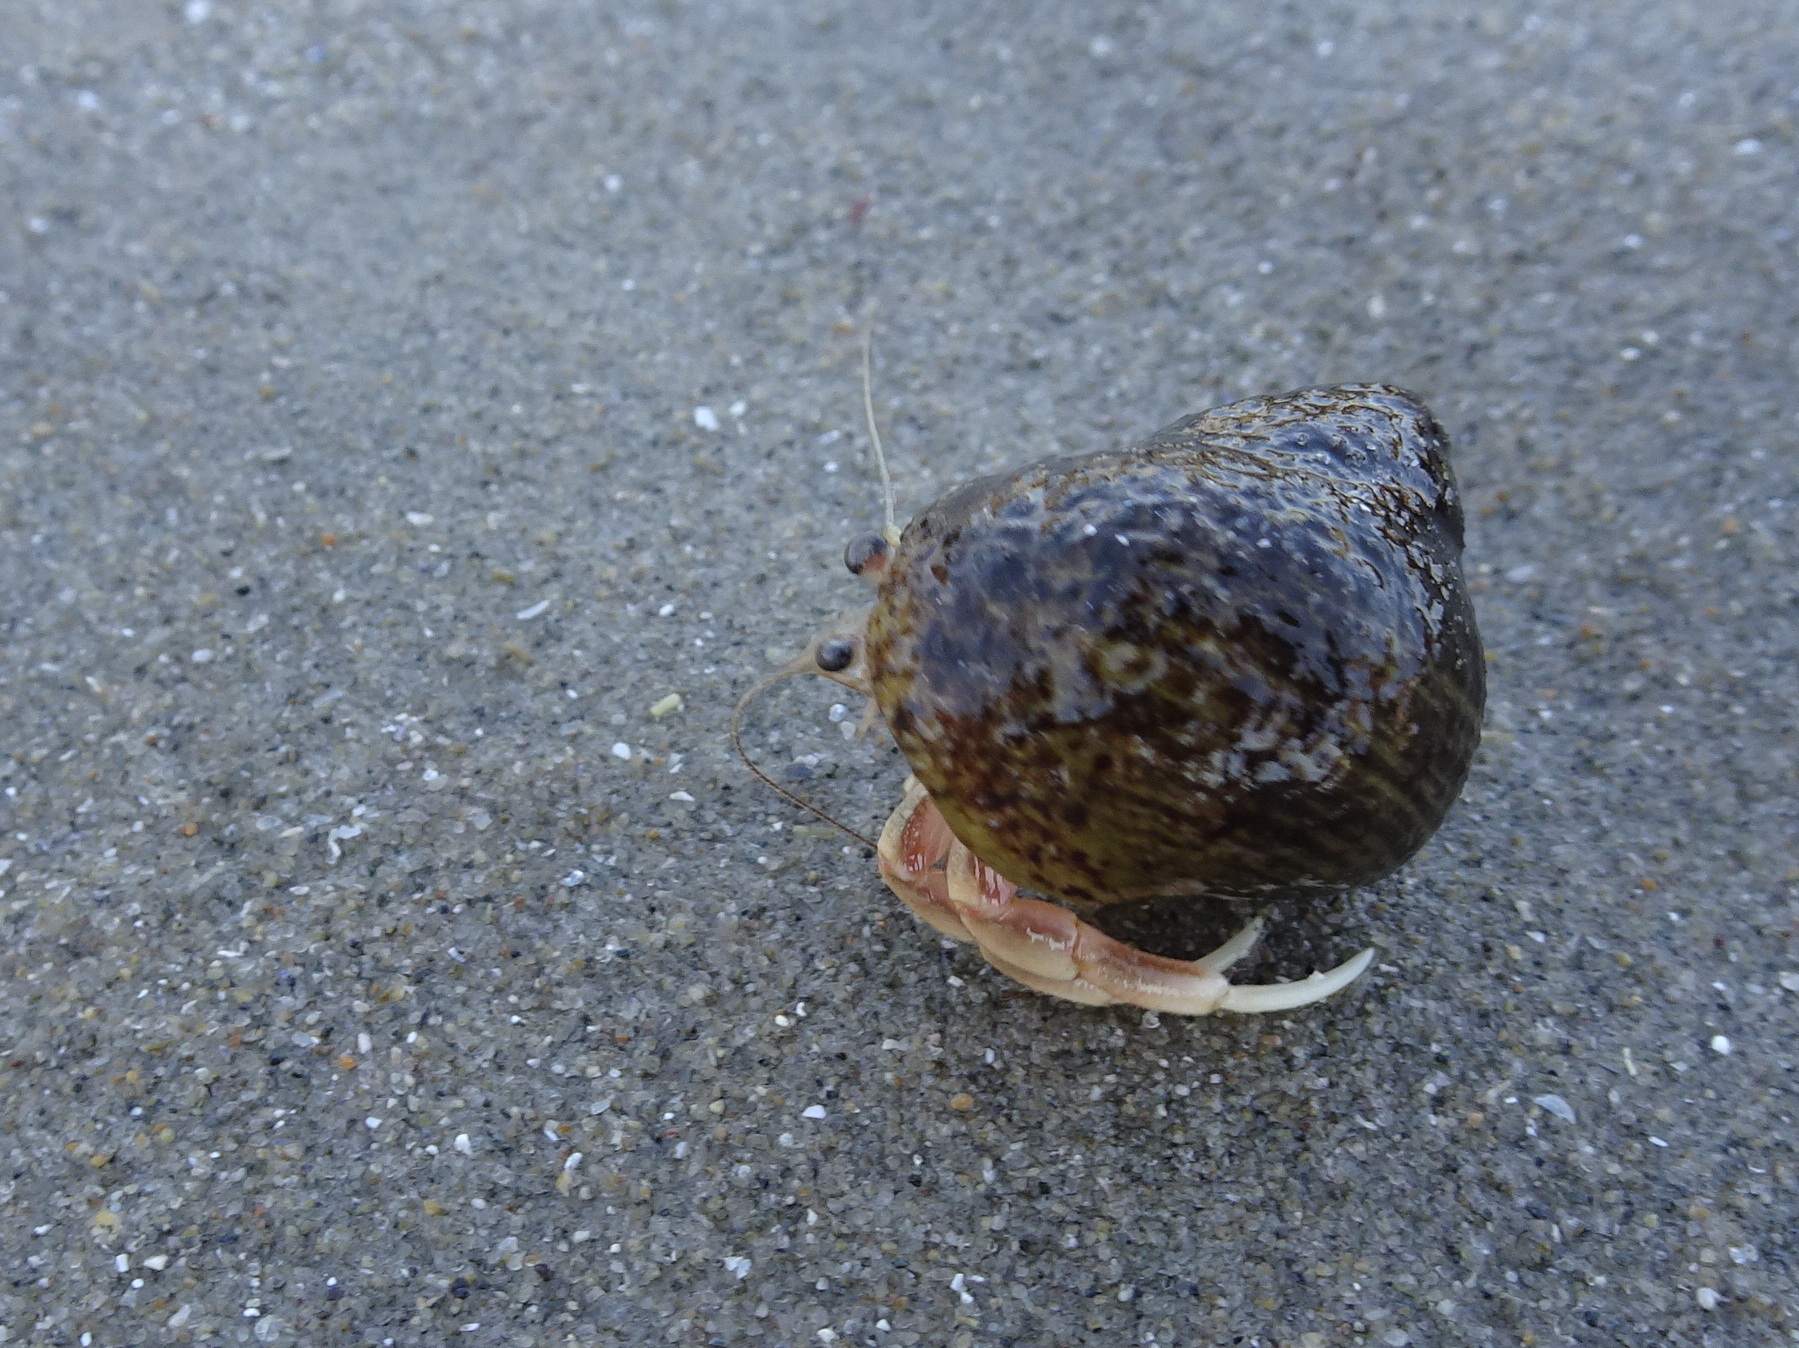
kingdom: Animalia
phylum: Arthropoda
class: Malacostraca
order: Decapoda
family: Paguridae
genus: Pagurus
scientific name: Pagurus longicarpus
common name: Long-armed hermit crab
